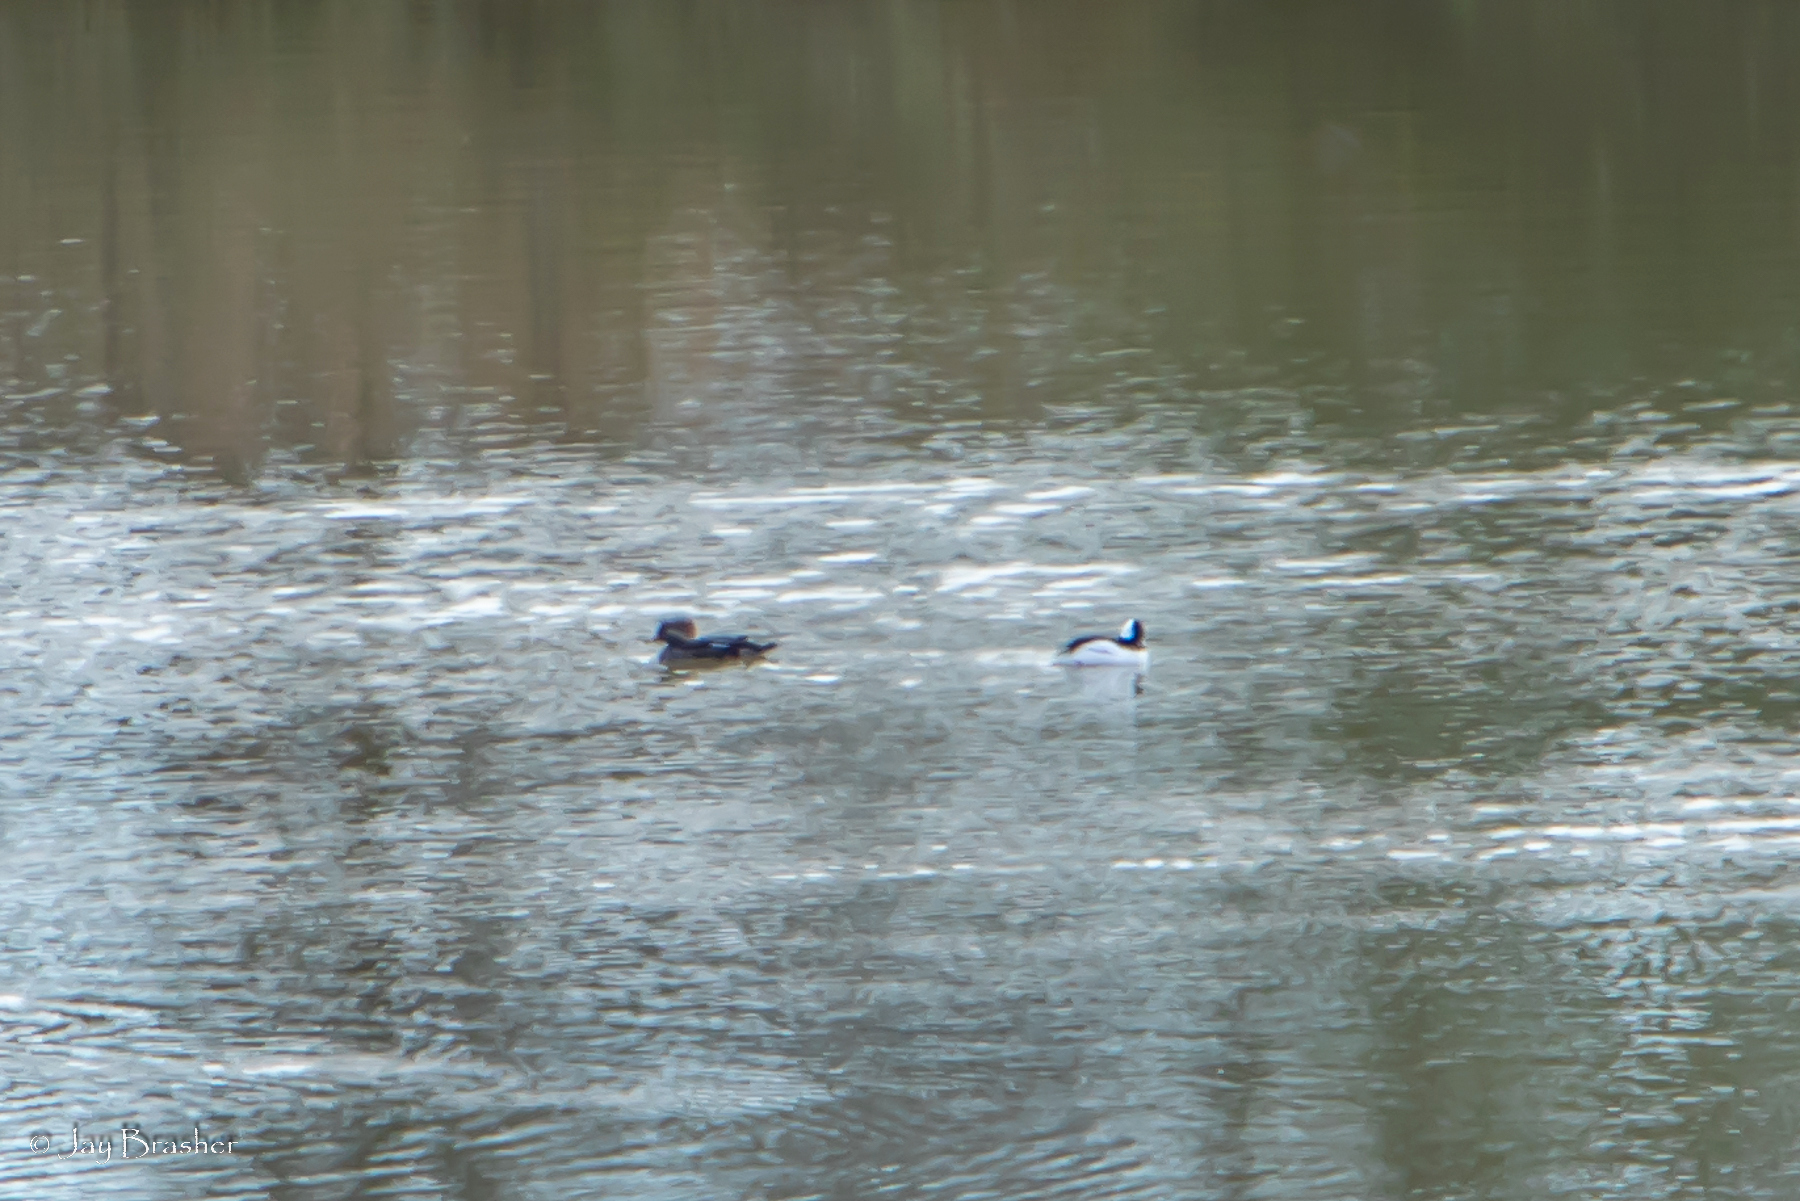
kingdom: Animalia
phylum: Chordata
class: Aves
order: Anseriformes
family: Anatidae
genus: Lophodytes
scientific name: Lophodytes cucullatus
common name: Hooded merganser
